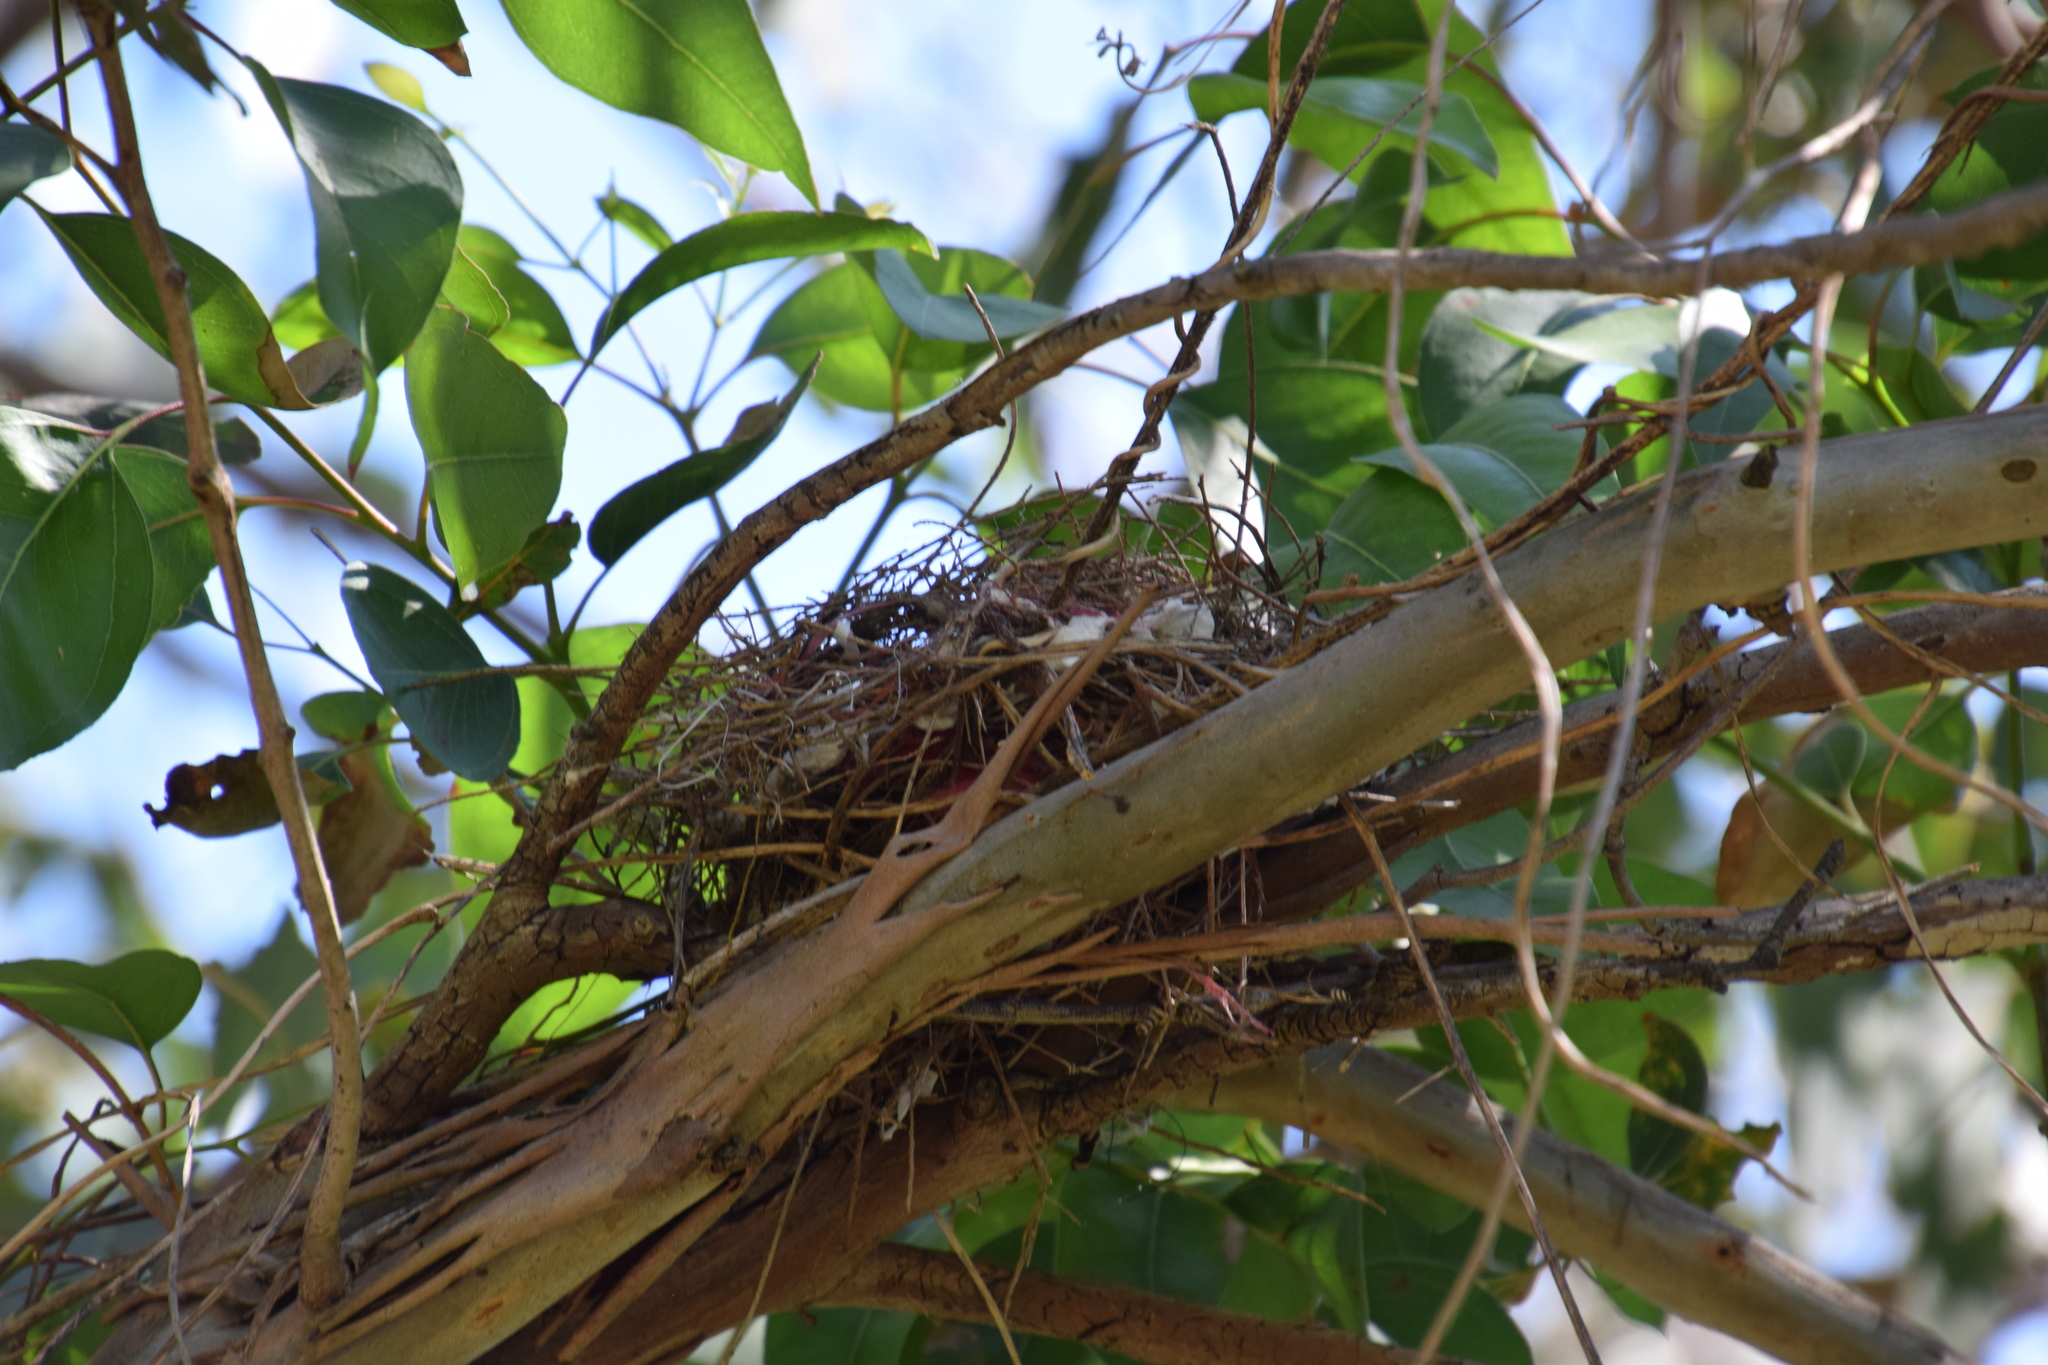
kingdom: Animalia
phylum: Chordata
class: Aves
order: Passeriformes
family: Meliphagidae
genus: Manorina
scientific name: Manorina melanocephala
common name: Noisy miner
